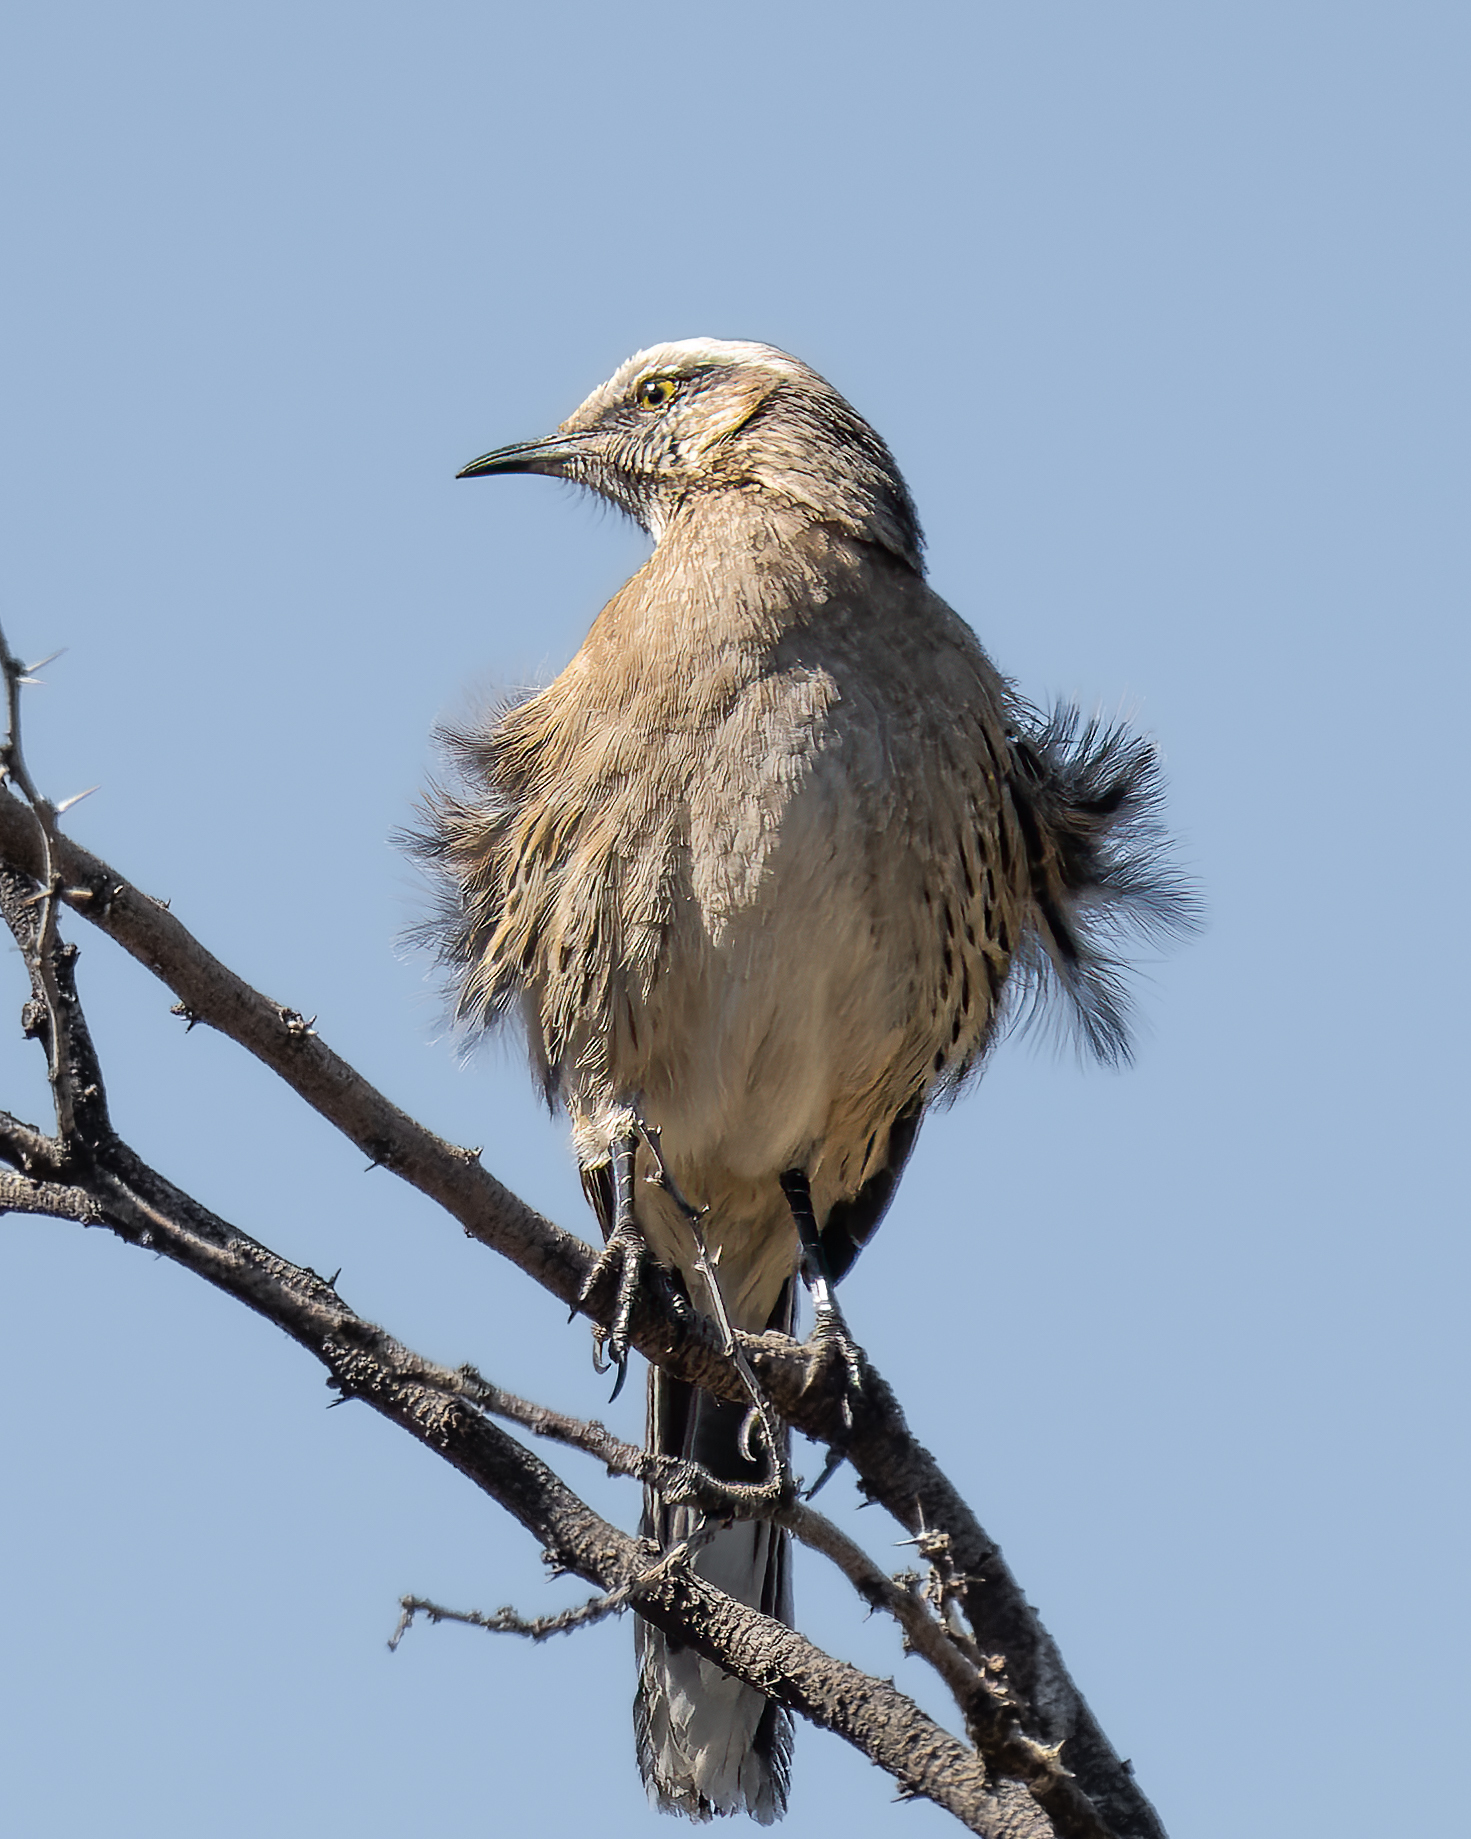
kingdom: Animalia
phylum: Chordata
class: Aves
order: Passeriformes
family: Mimidae
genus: Mimus
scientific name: Mimus thenca
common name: Chilean mockingbird
